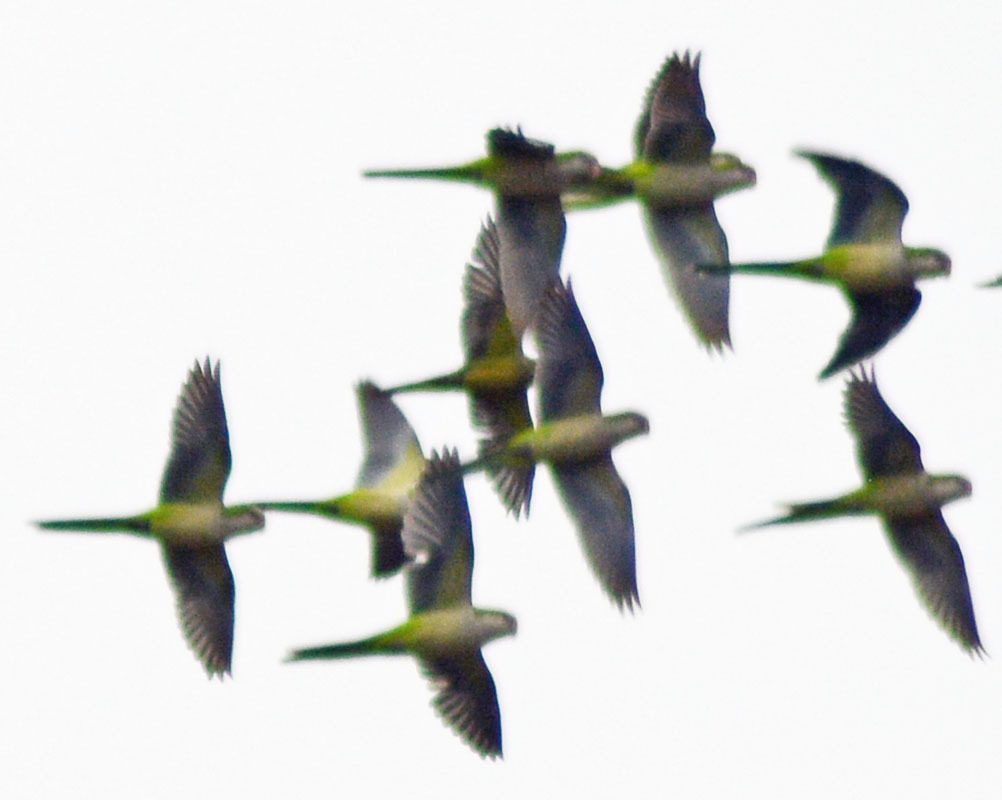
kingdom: Animalia
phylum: Chordata
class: Aves
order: Psittaciformes
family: Psittacidae
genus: Myiopsitta
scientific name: Myiopsitta monachus
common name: Monk parakeet
